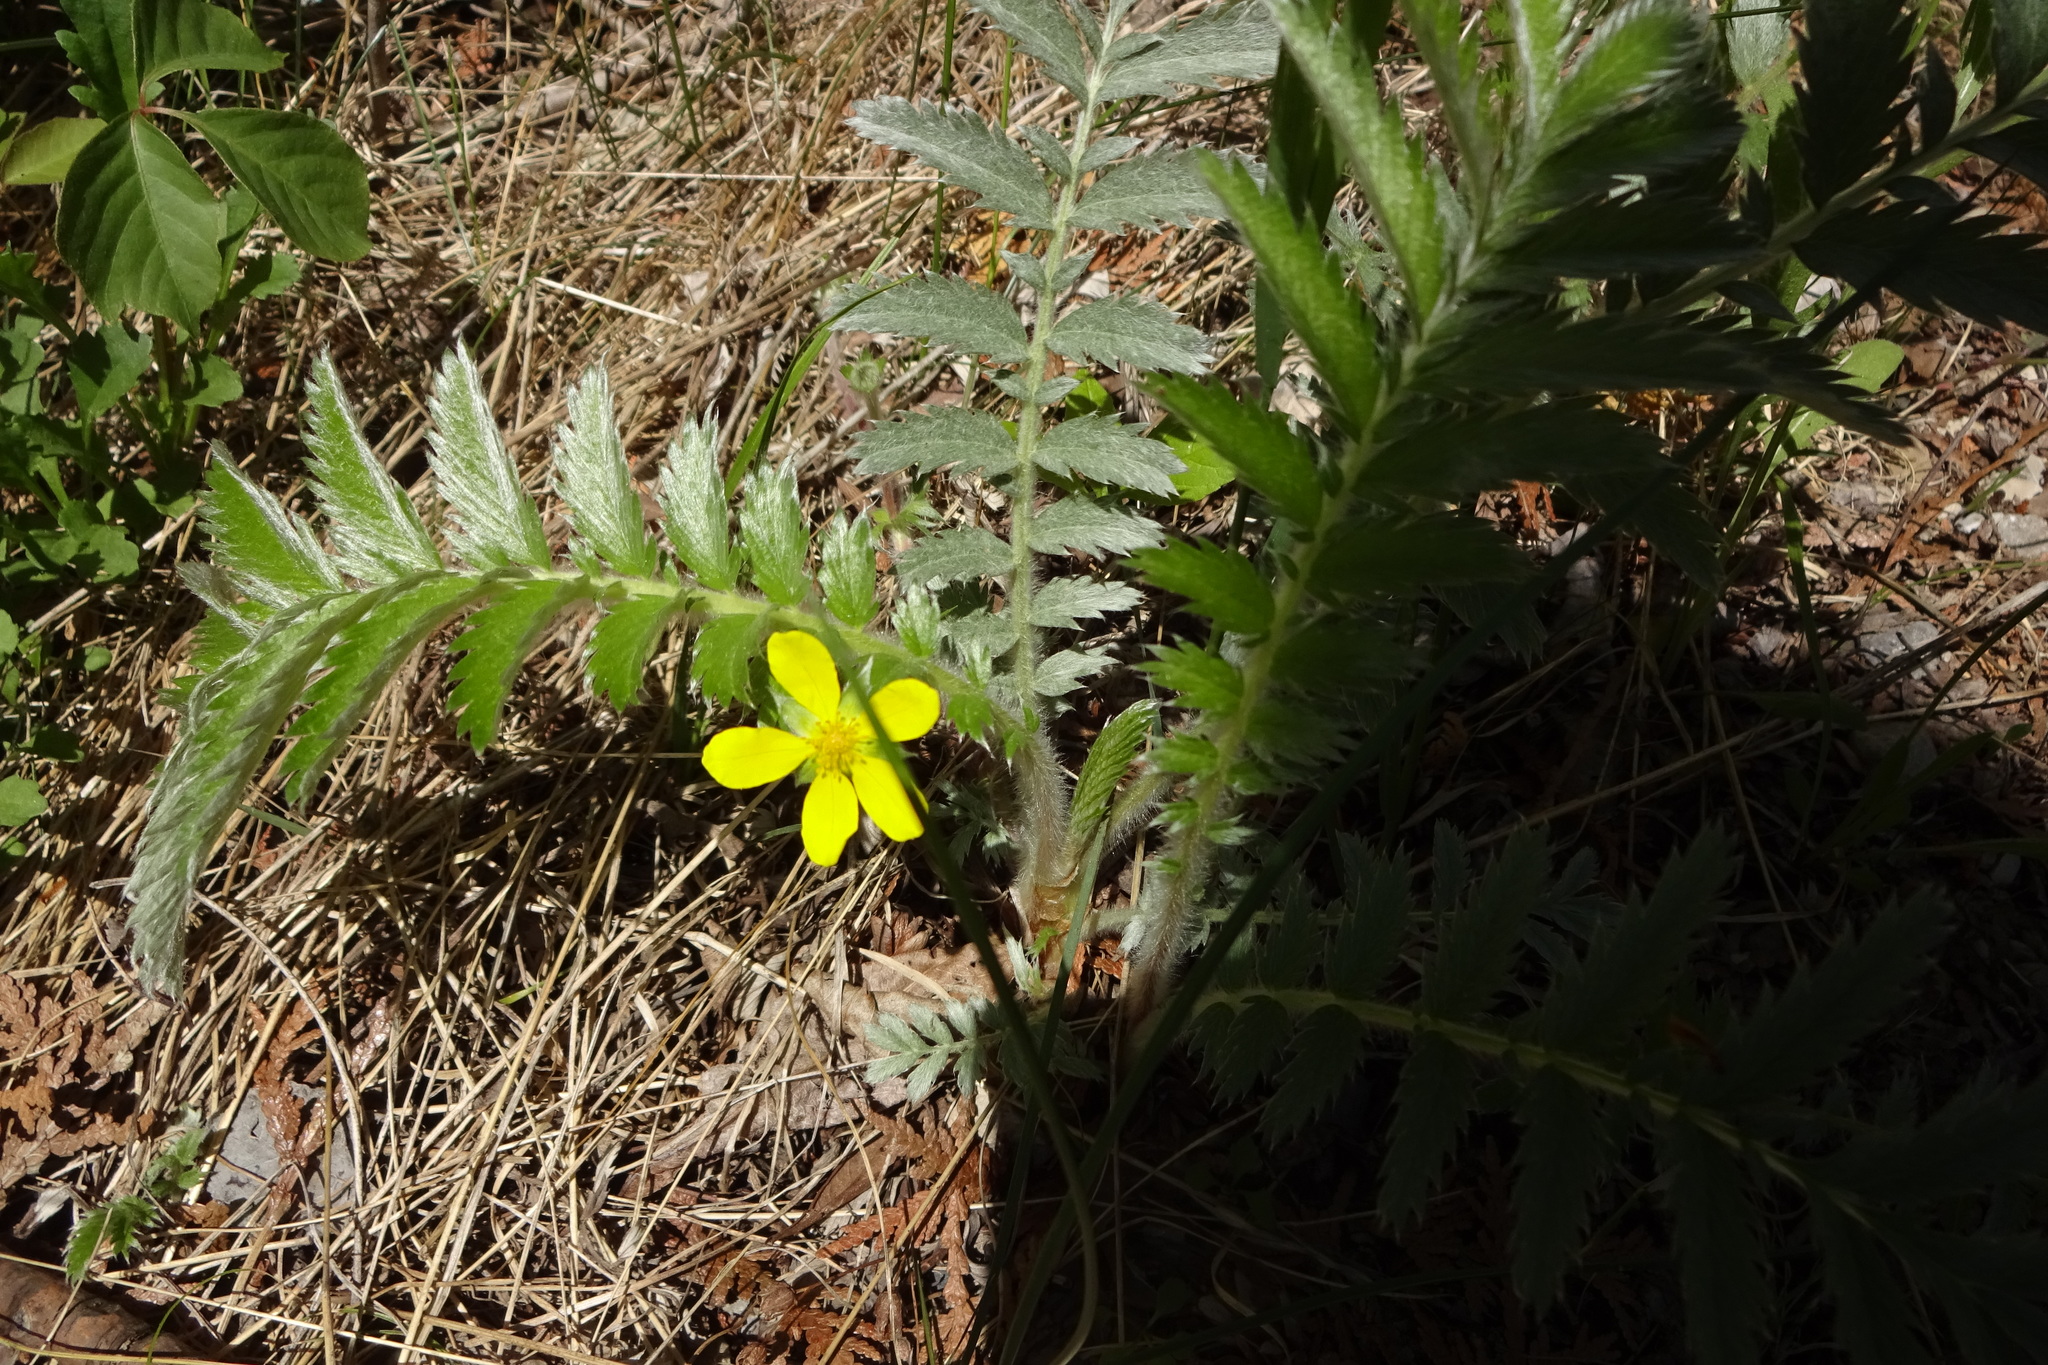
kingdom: Plantae
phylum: Tracheophyta
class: Magnoliopsida
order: Rosales
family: Rosaceae
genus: Argentina
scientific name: Argentina anserina
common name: Common silverweed
